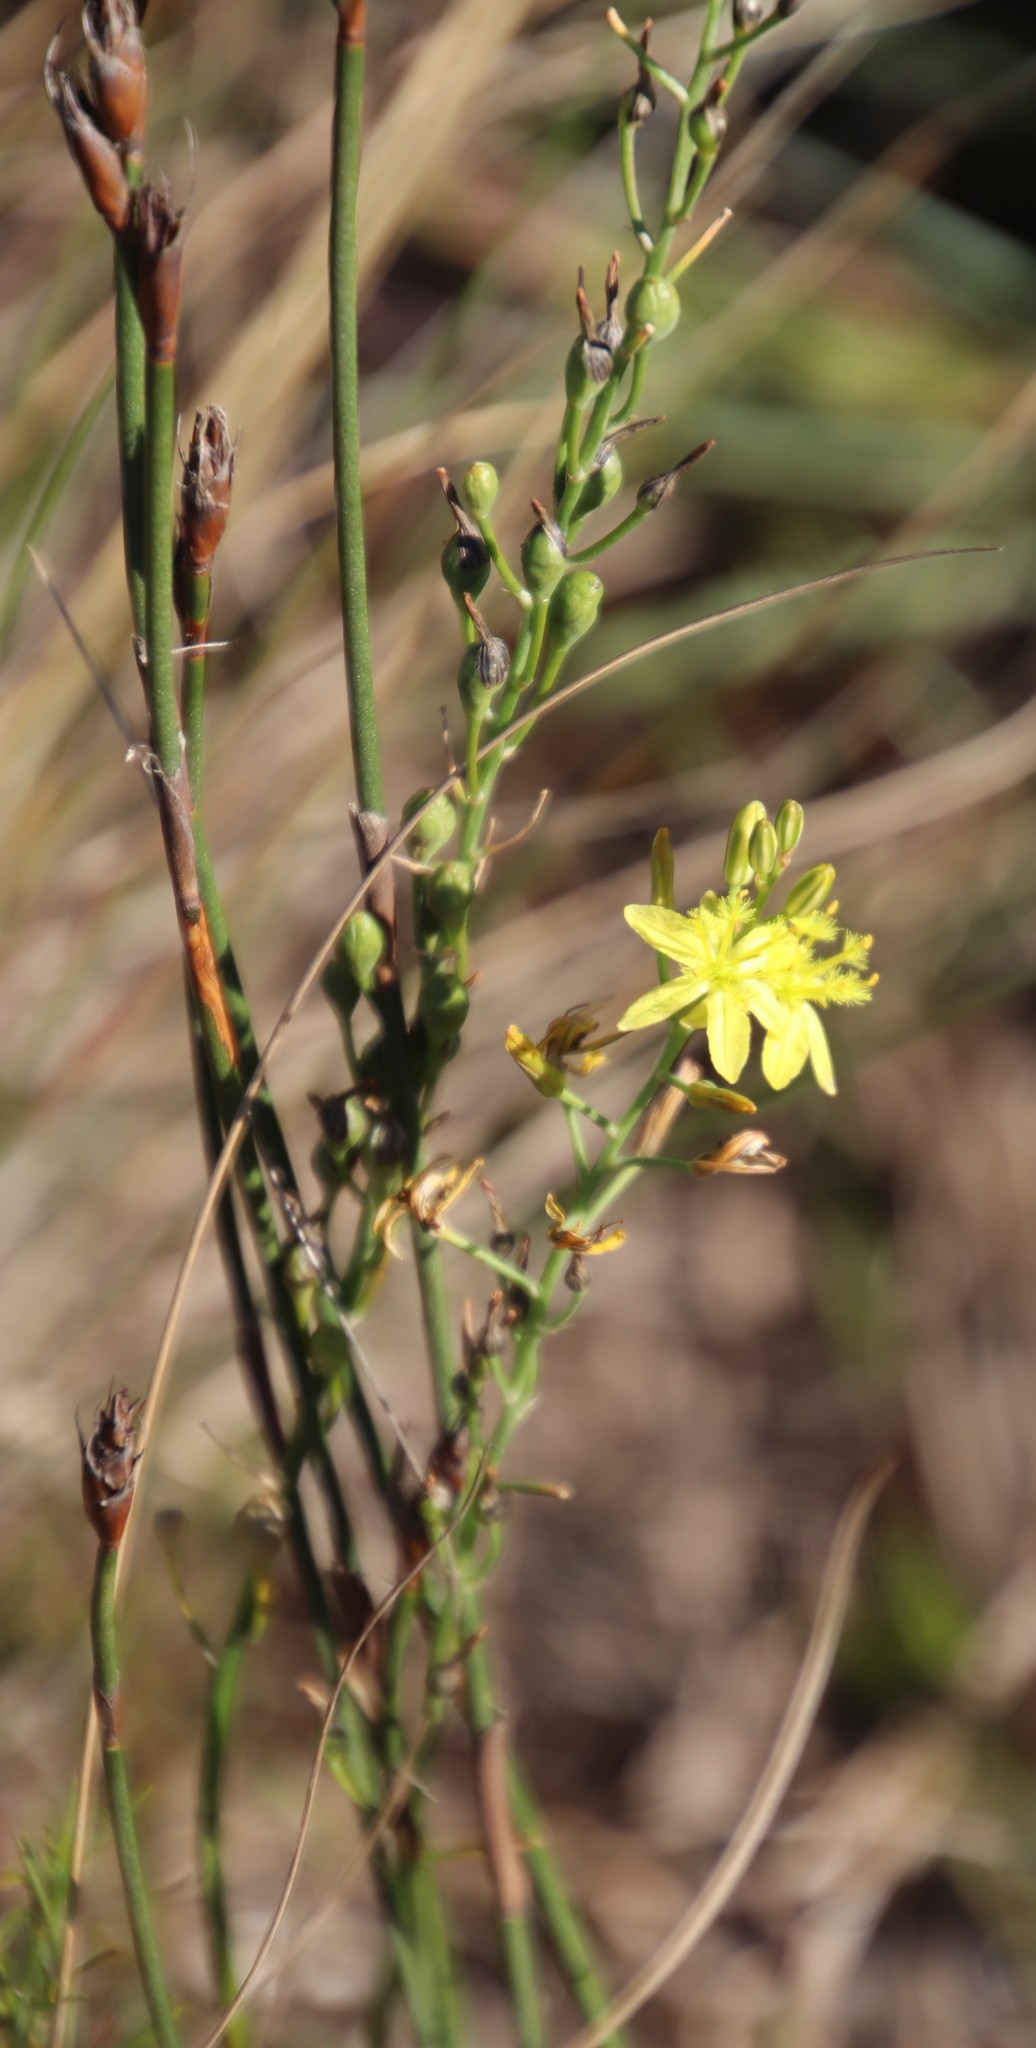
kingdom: Plantae
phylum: Tracheophyta
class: Liliopsida
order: Asparagales
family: Asphodelaceae
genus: Bulbine
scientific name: Bulbine cepacea
